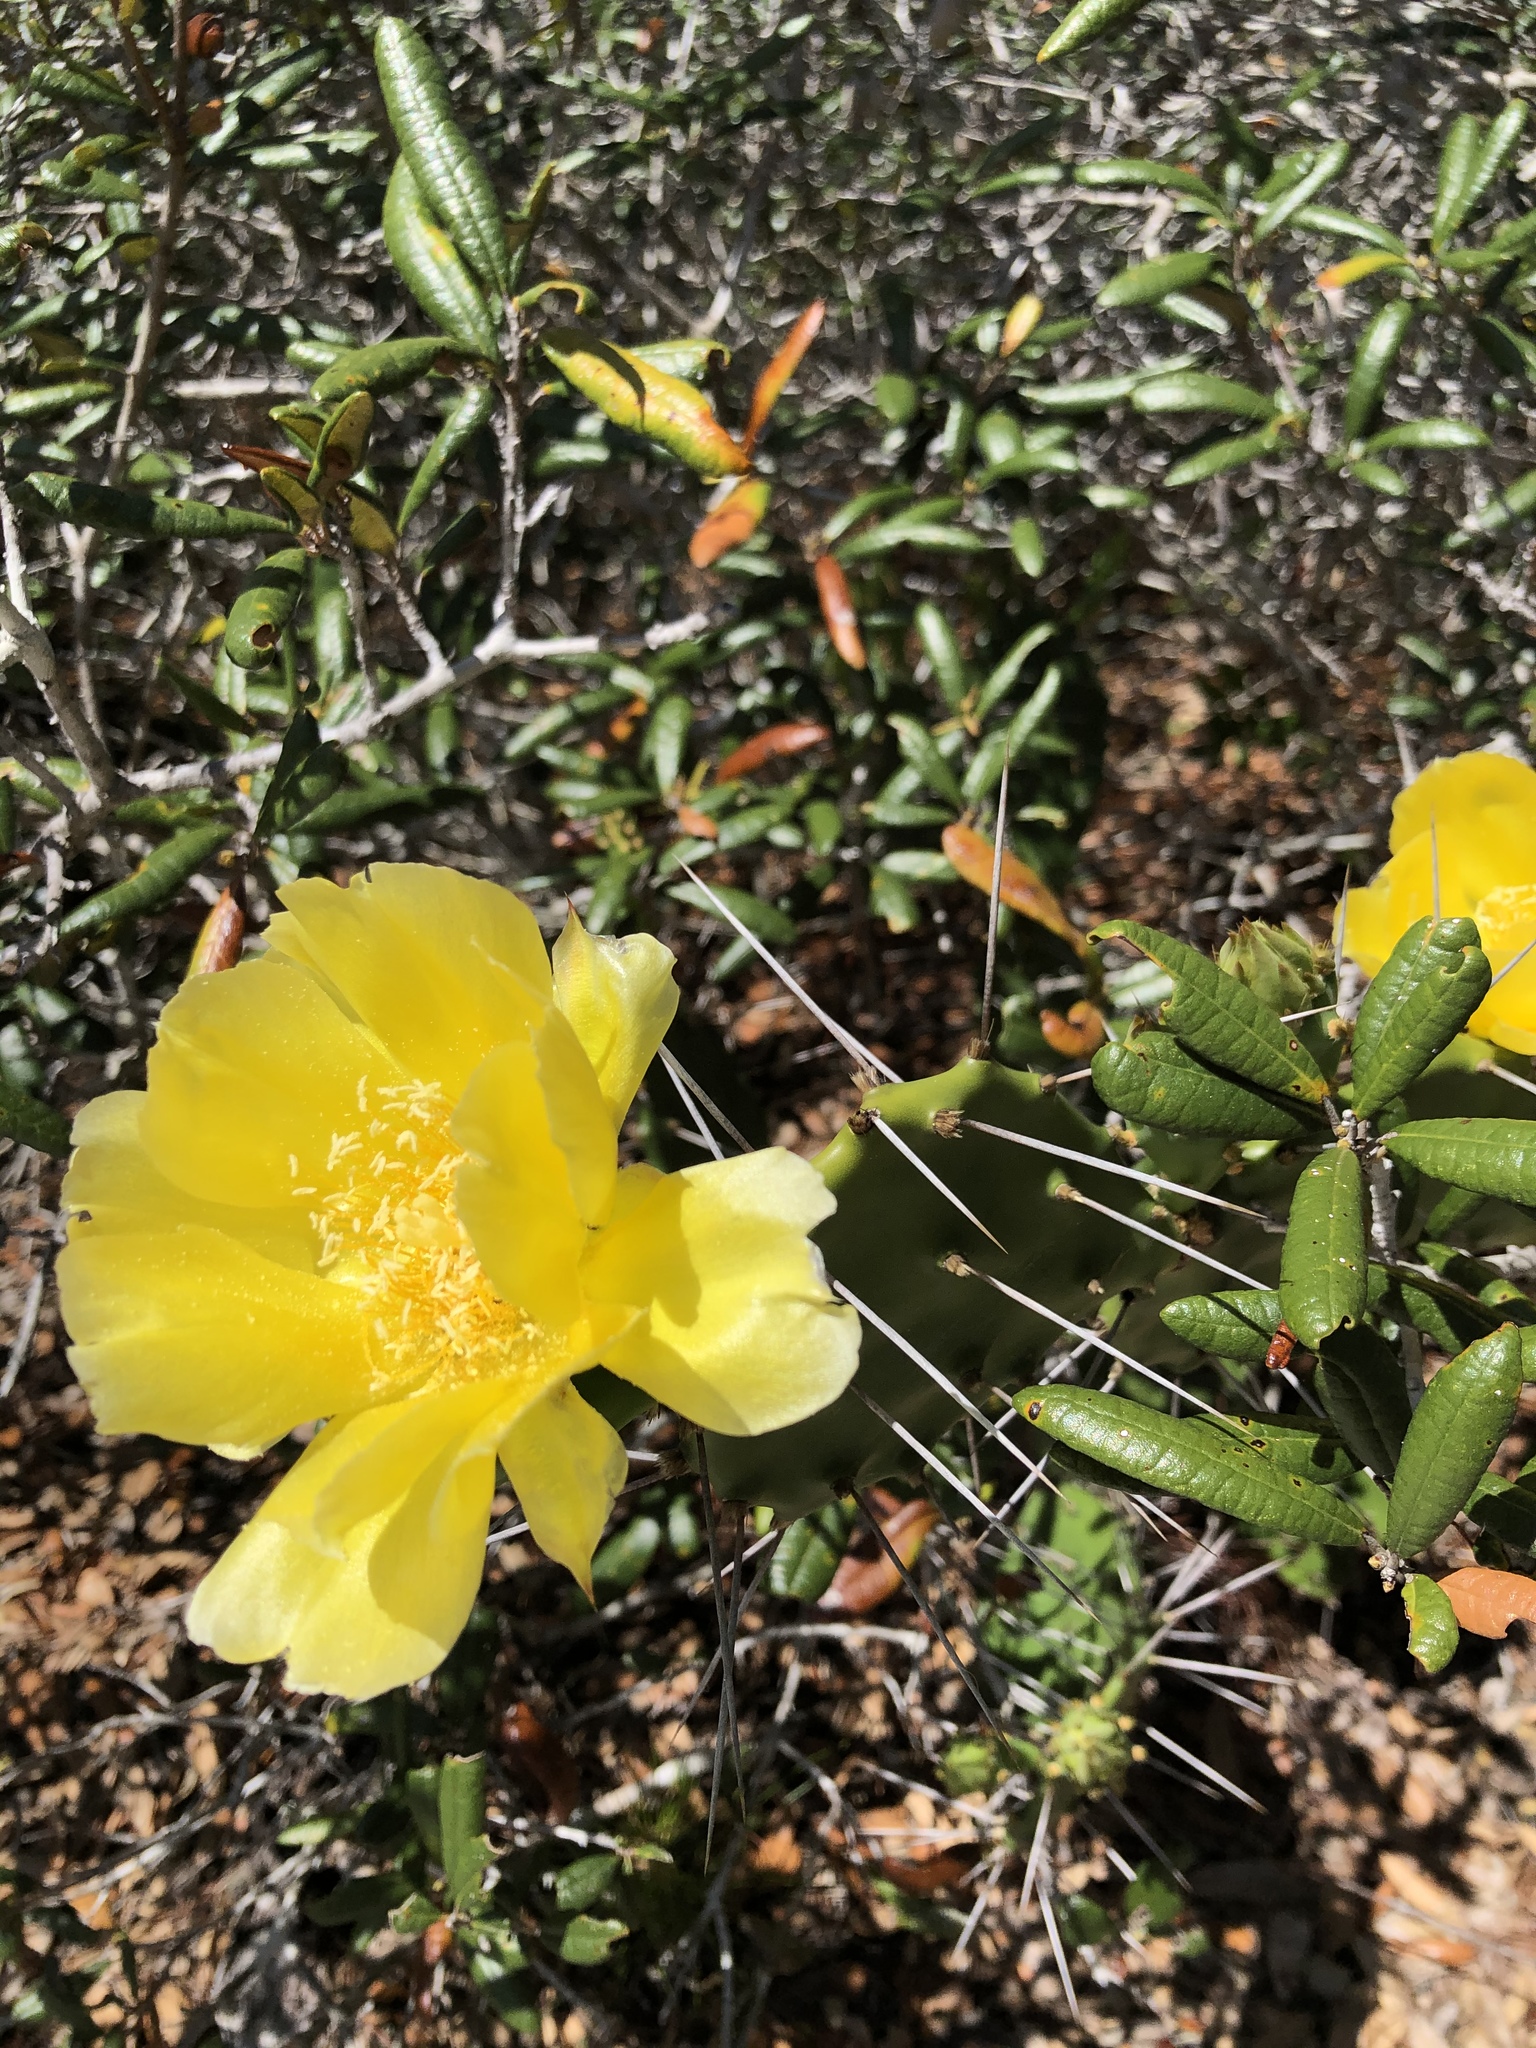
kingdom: Plantae
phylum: Tracheophyta
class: Magnoliopsida
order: Caryophyllales
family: Cactaceae
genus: Opuntia
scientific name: Opuntia austrina
